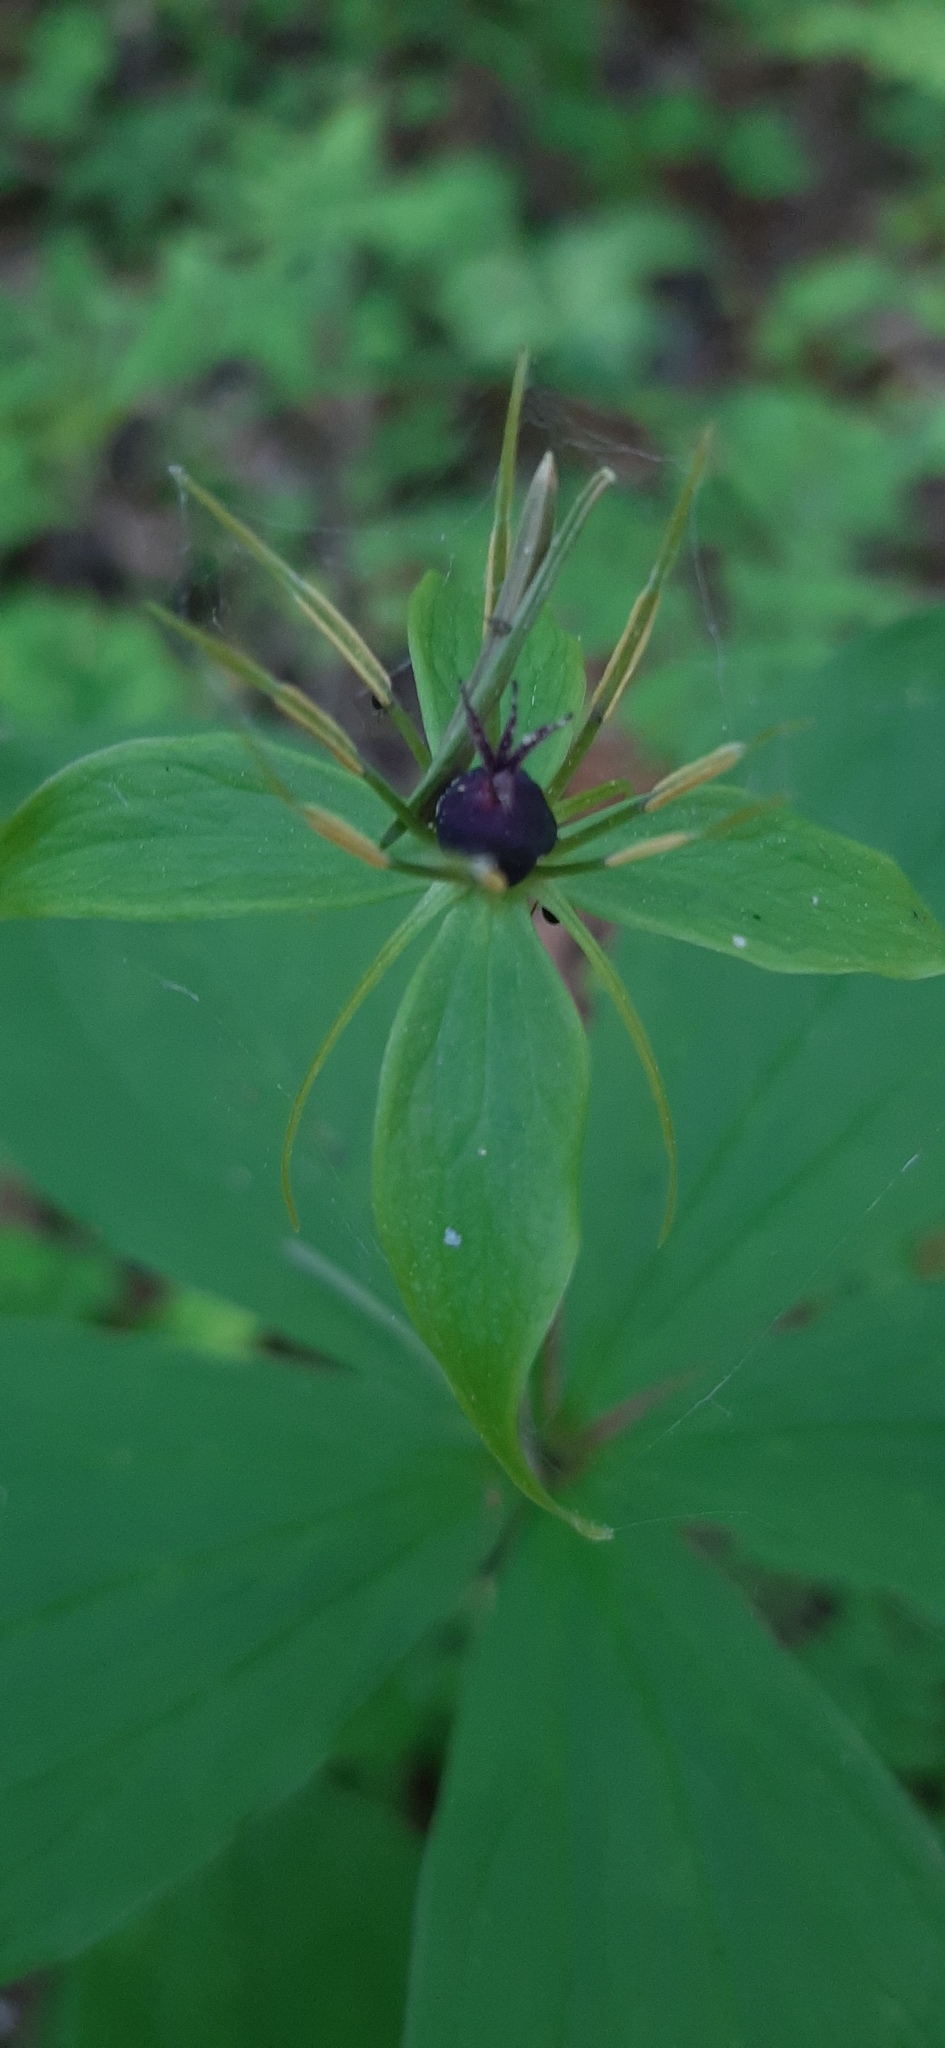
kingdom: Plantae
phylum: Tracheophyta
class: Liliopsida
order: Liliales
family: Melanthiaceae
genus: Paris
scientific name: Paris quadrifolia
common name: Herb-paris
